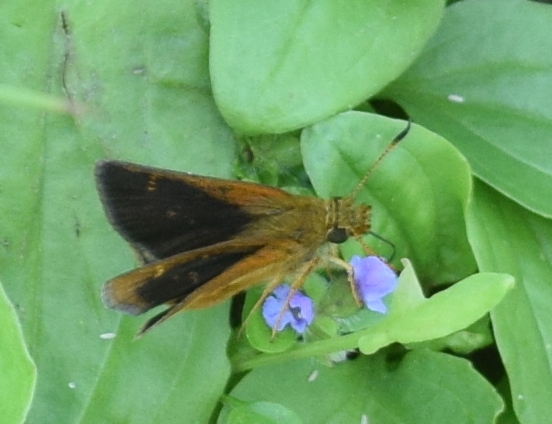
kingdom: Animalia
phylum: Arthropoda
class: Insecta
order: Lepidoptera
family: Hesperiidae
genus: Poanes
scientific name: Poanes massasoit
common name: Mulberrywing
